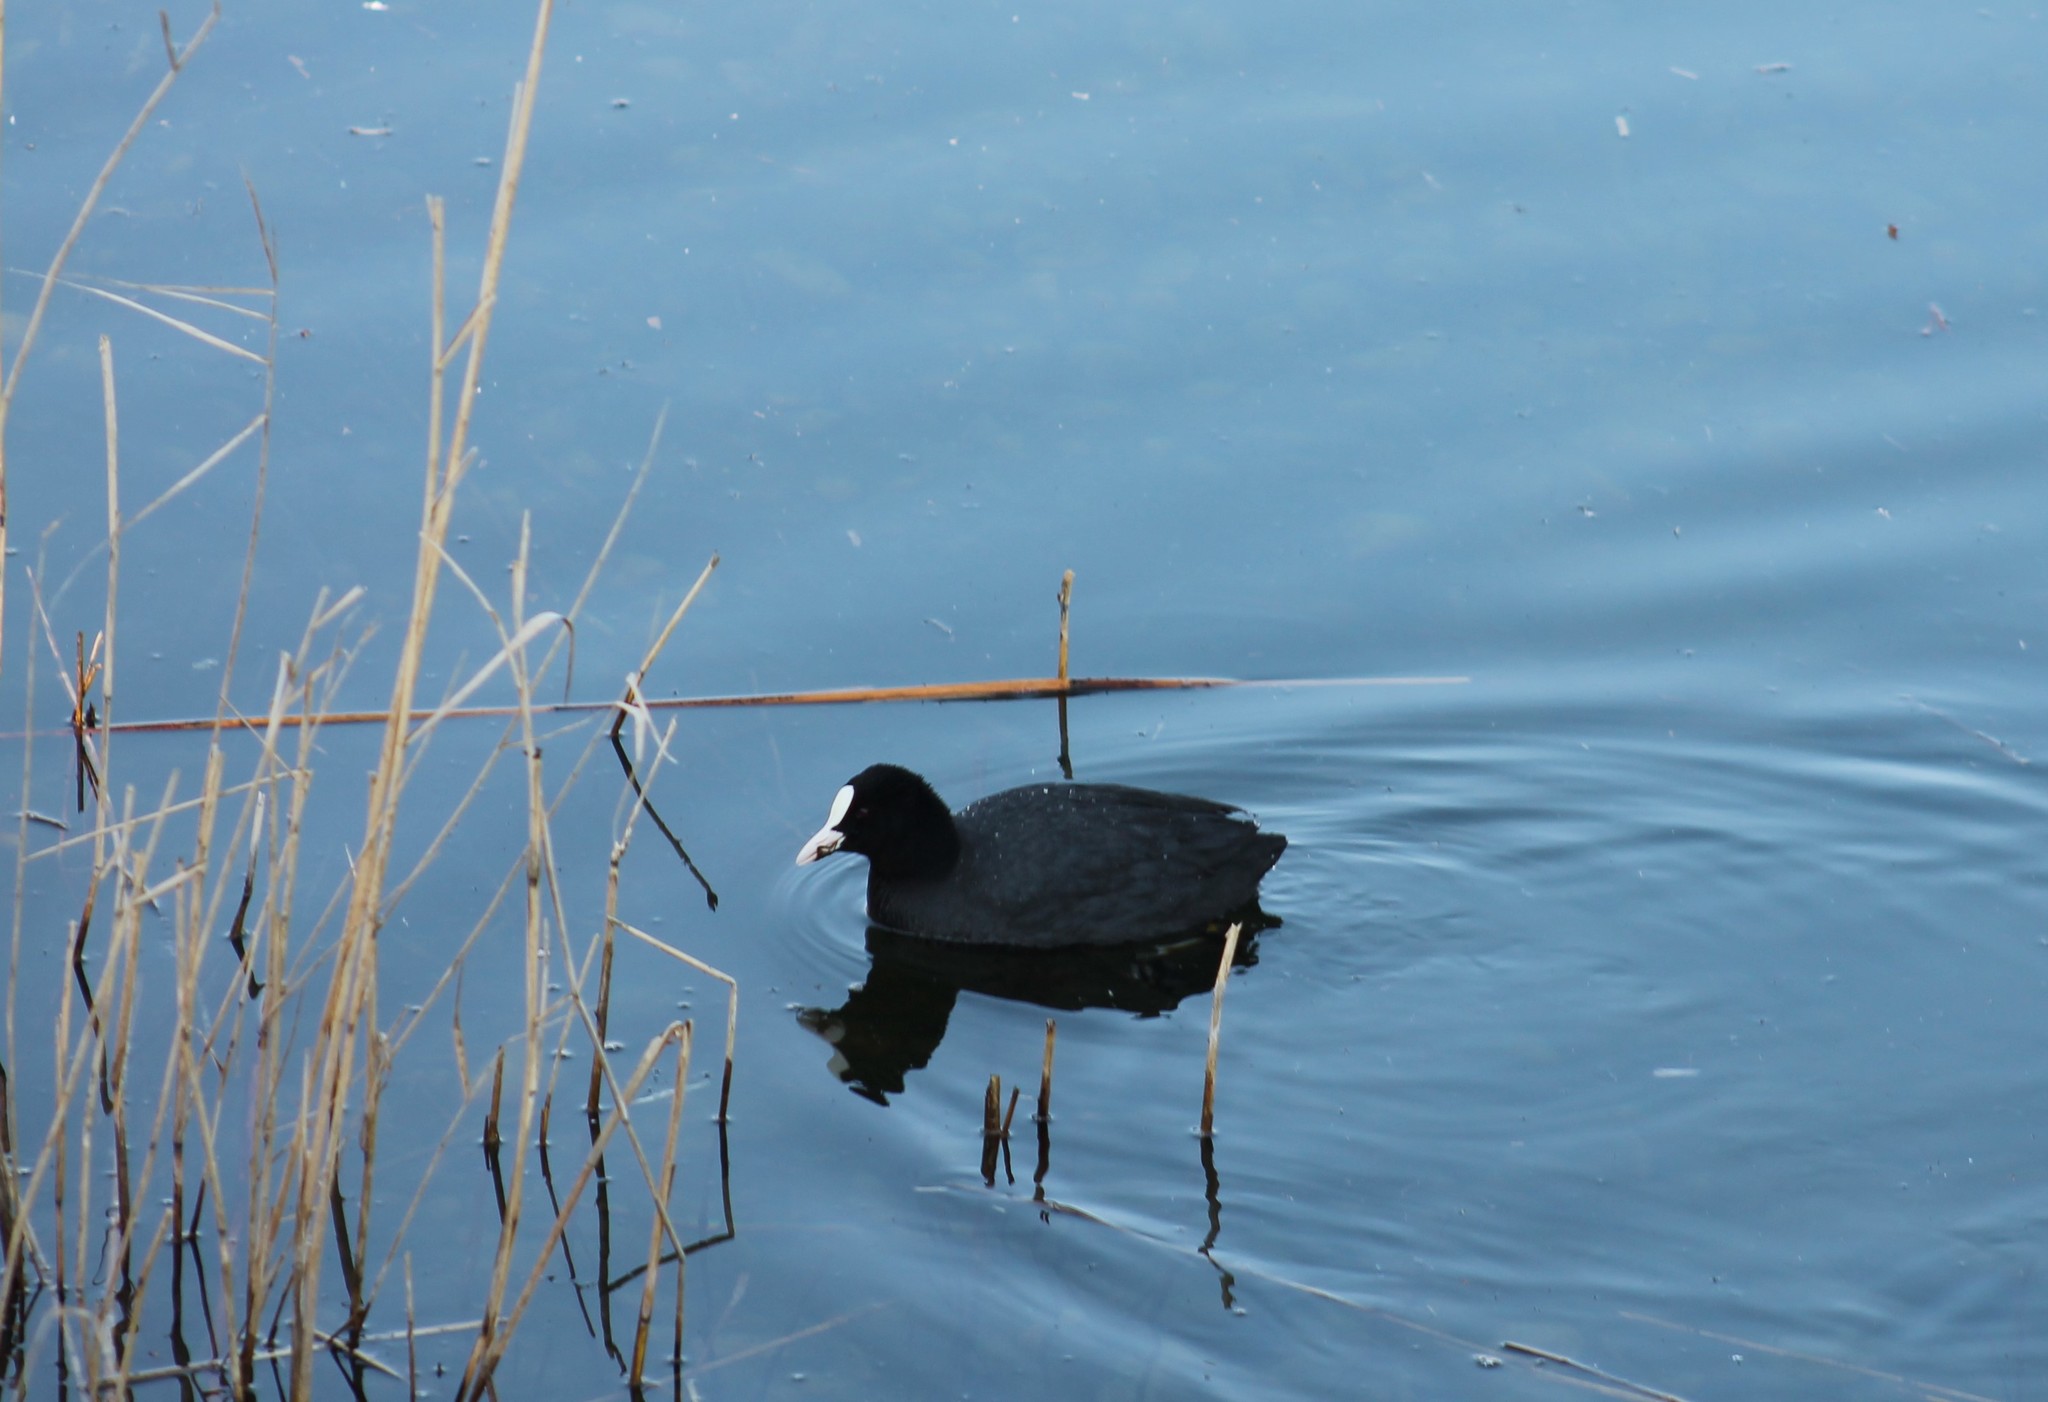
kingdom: Animalia
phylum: Chordata
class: Aves
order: Gruiformes
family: Rallidae
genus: Fulica
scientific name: Fulica atra
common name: Eurasian coot
